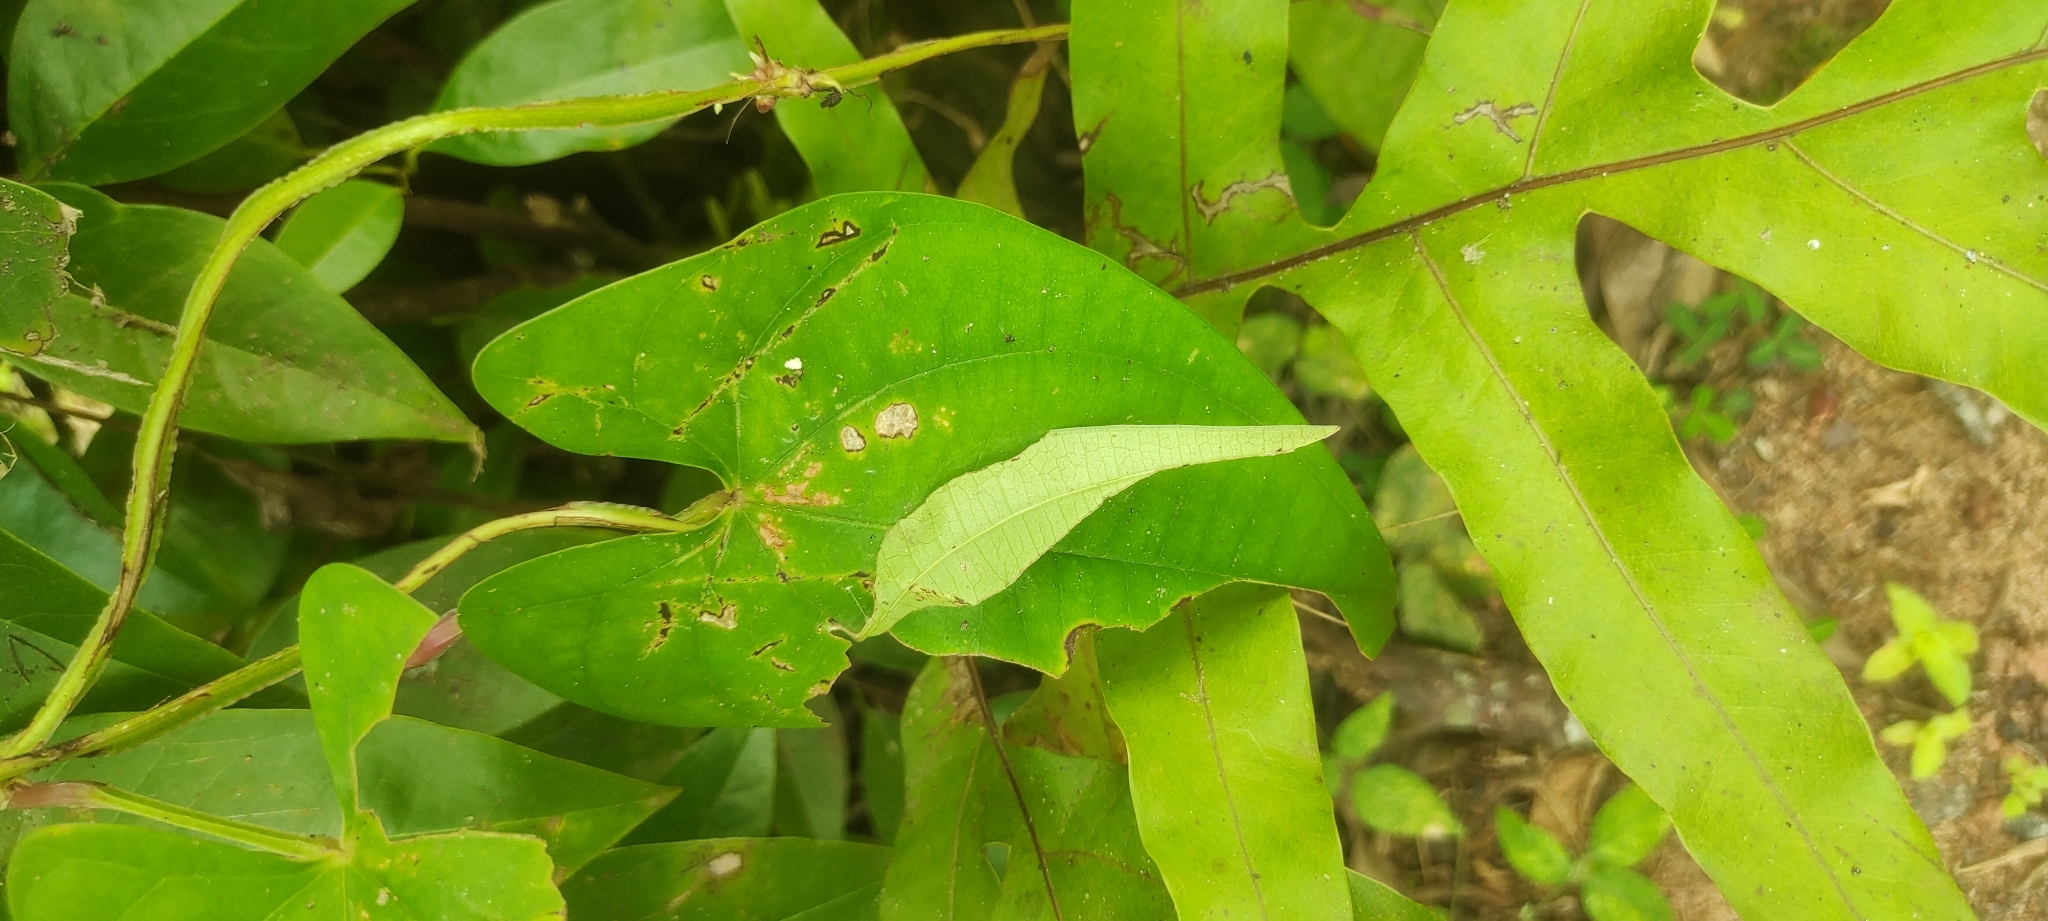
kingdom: Animalia
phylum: Arthropoda
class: Insecta
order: Lepidoptera
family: Hesperiidae
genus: Tagiades
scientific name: Tagiades litigiosa
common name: Water snow flat
